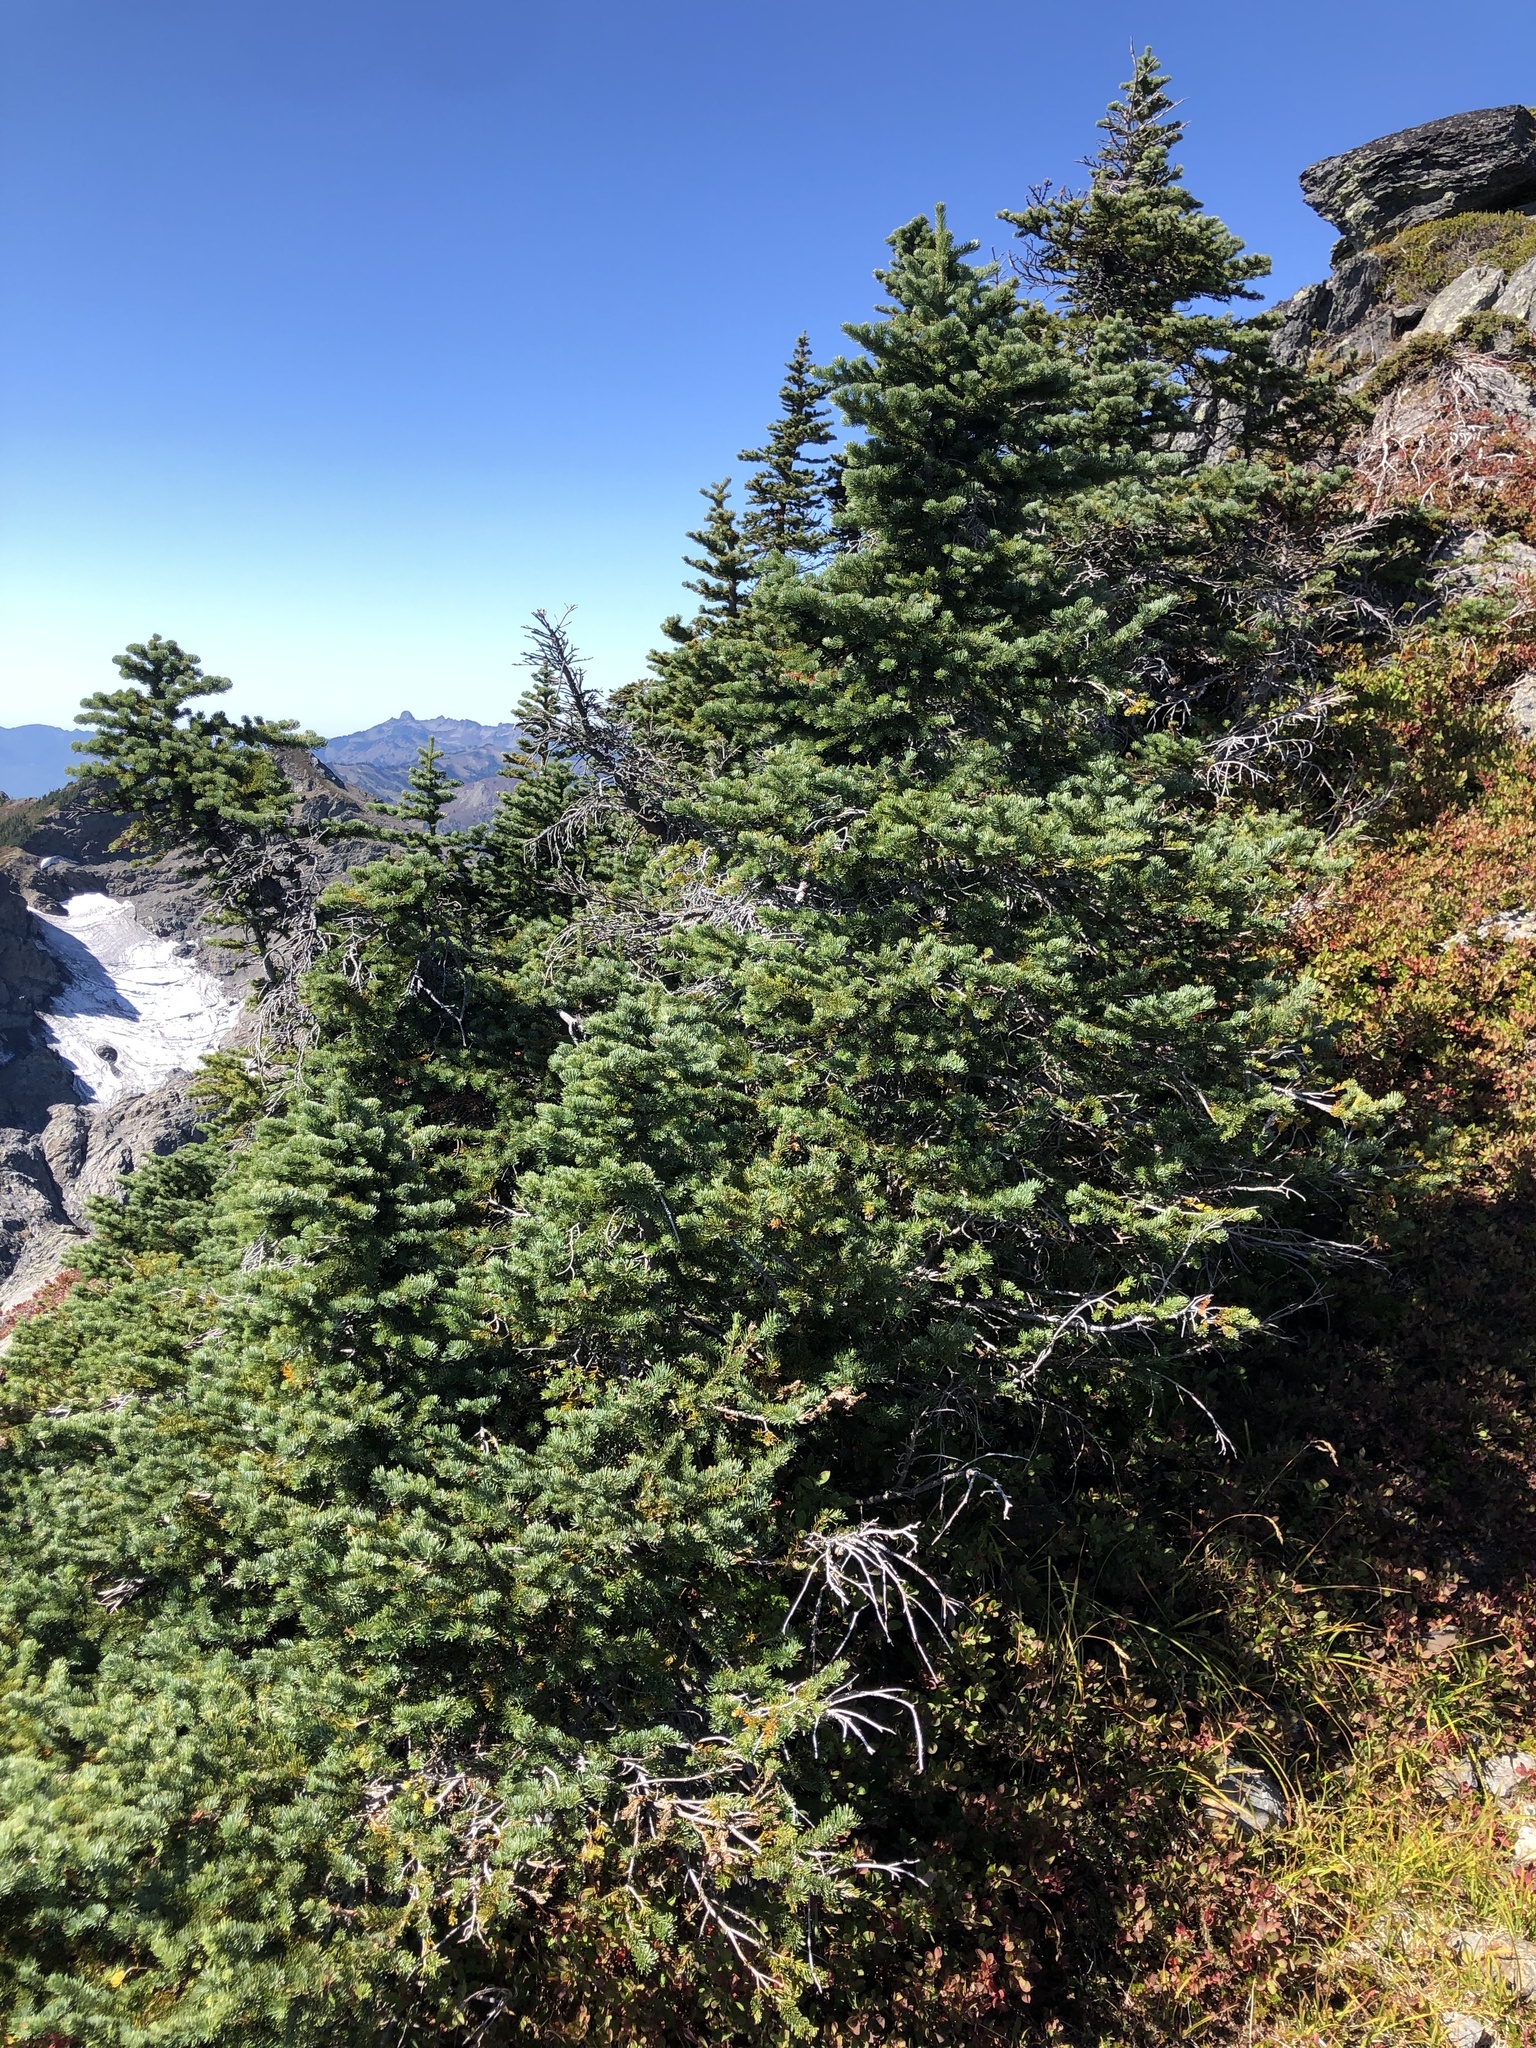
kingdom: Plantae
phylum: Tracheophyta
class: Pinopsida
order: Pinales
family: Pinaceae
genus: Abies
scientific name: Abies lasiocarpa
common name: Subalpine fir
